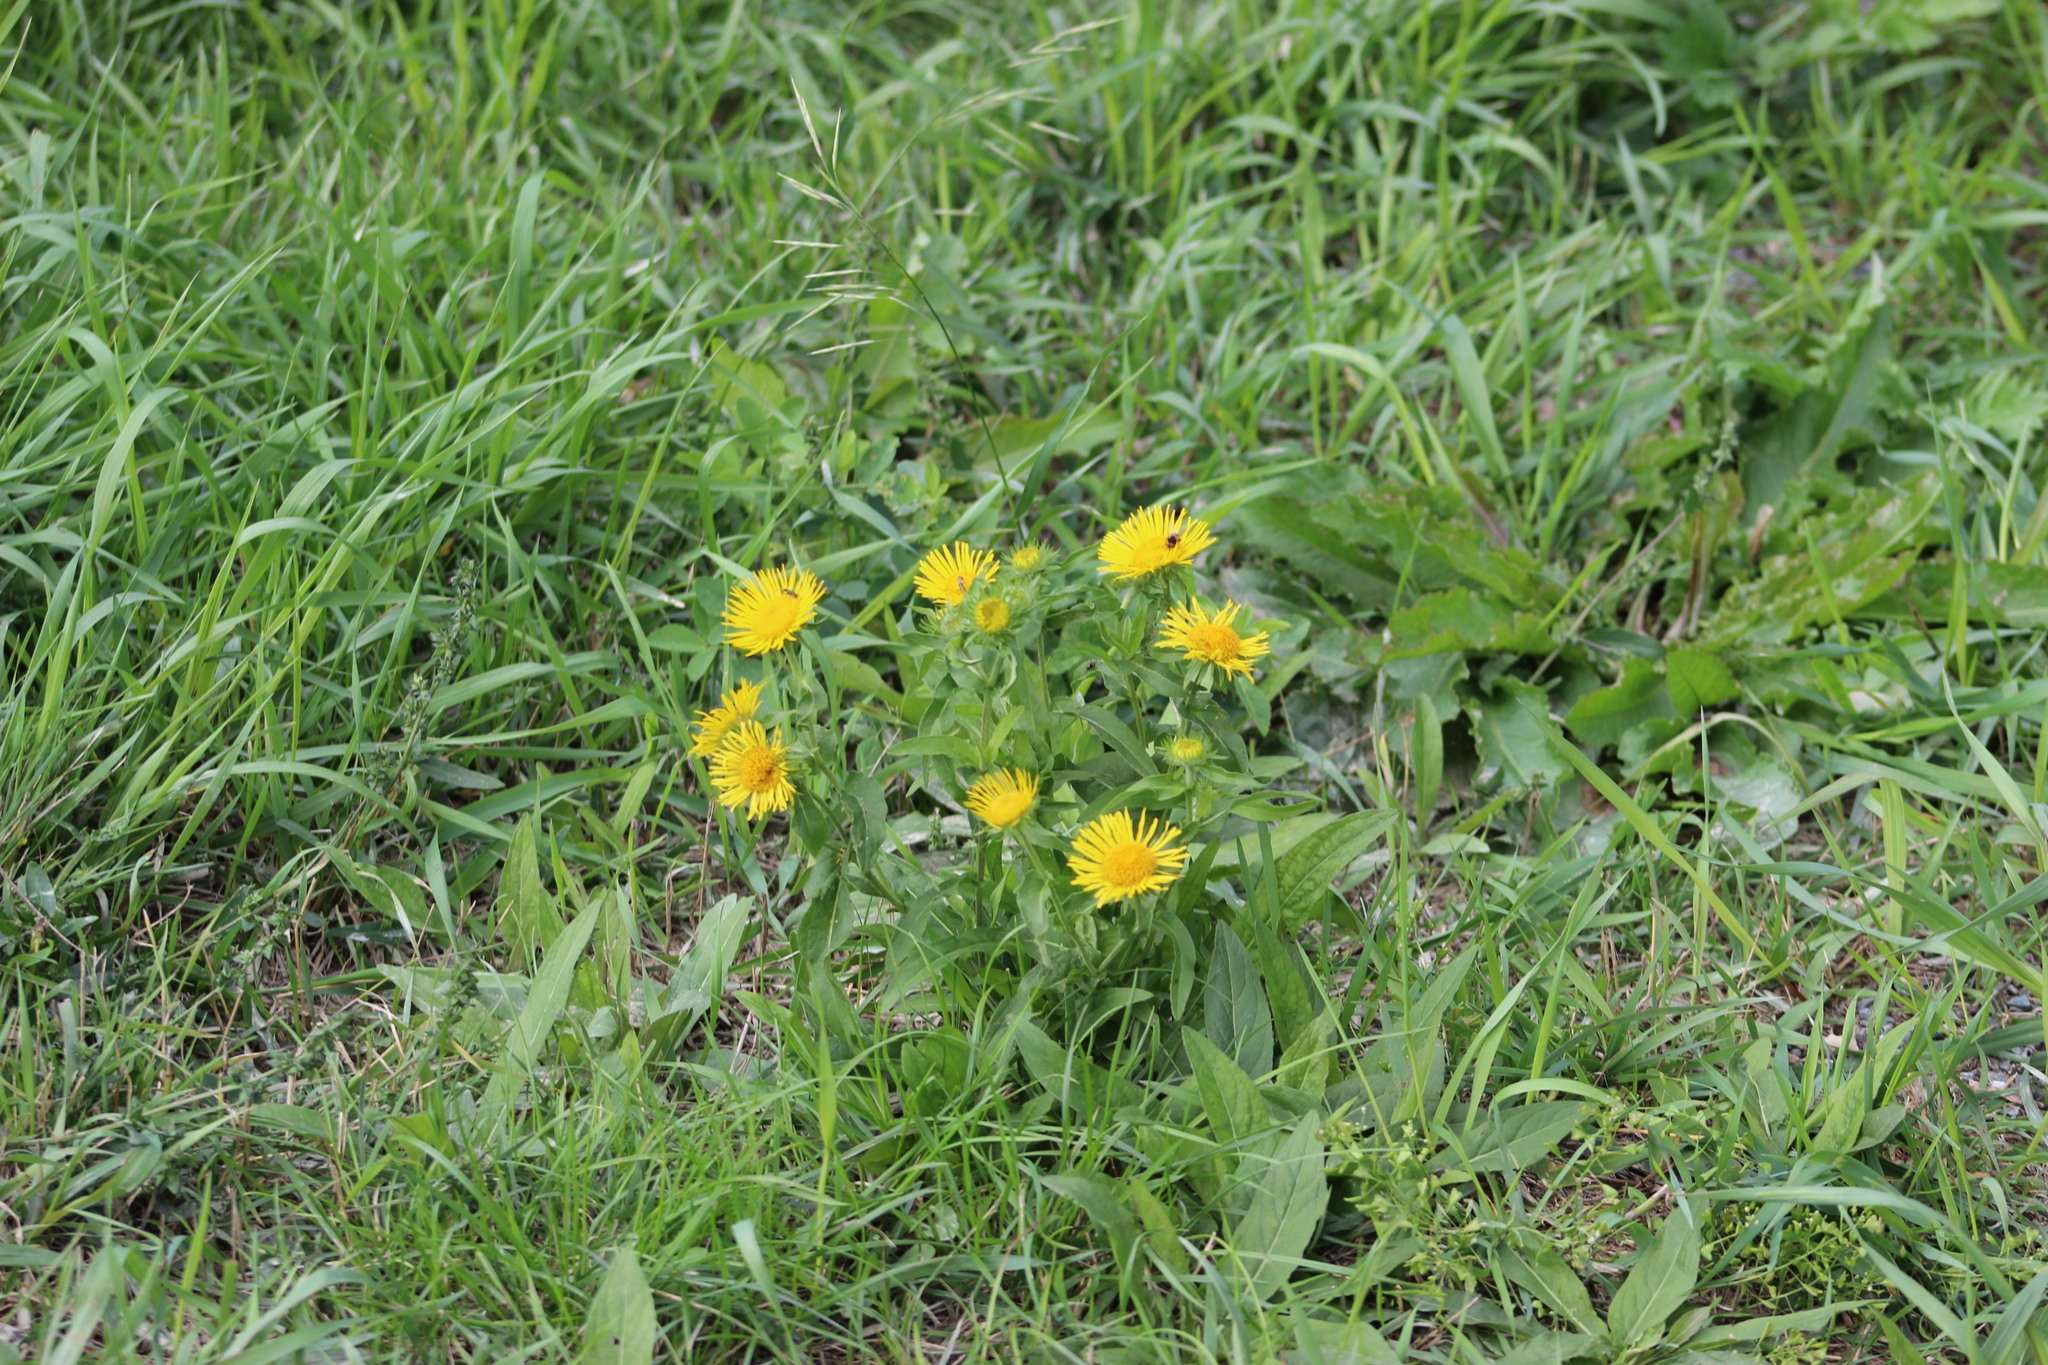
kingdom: Plantae
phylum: Tracheophyta
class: Magnoliopsida
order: Asterales
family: Asteraceae
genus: Pentanema
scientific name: Pentanema britannicum
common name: British elecampane
